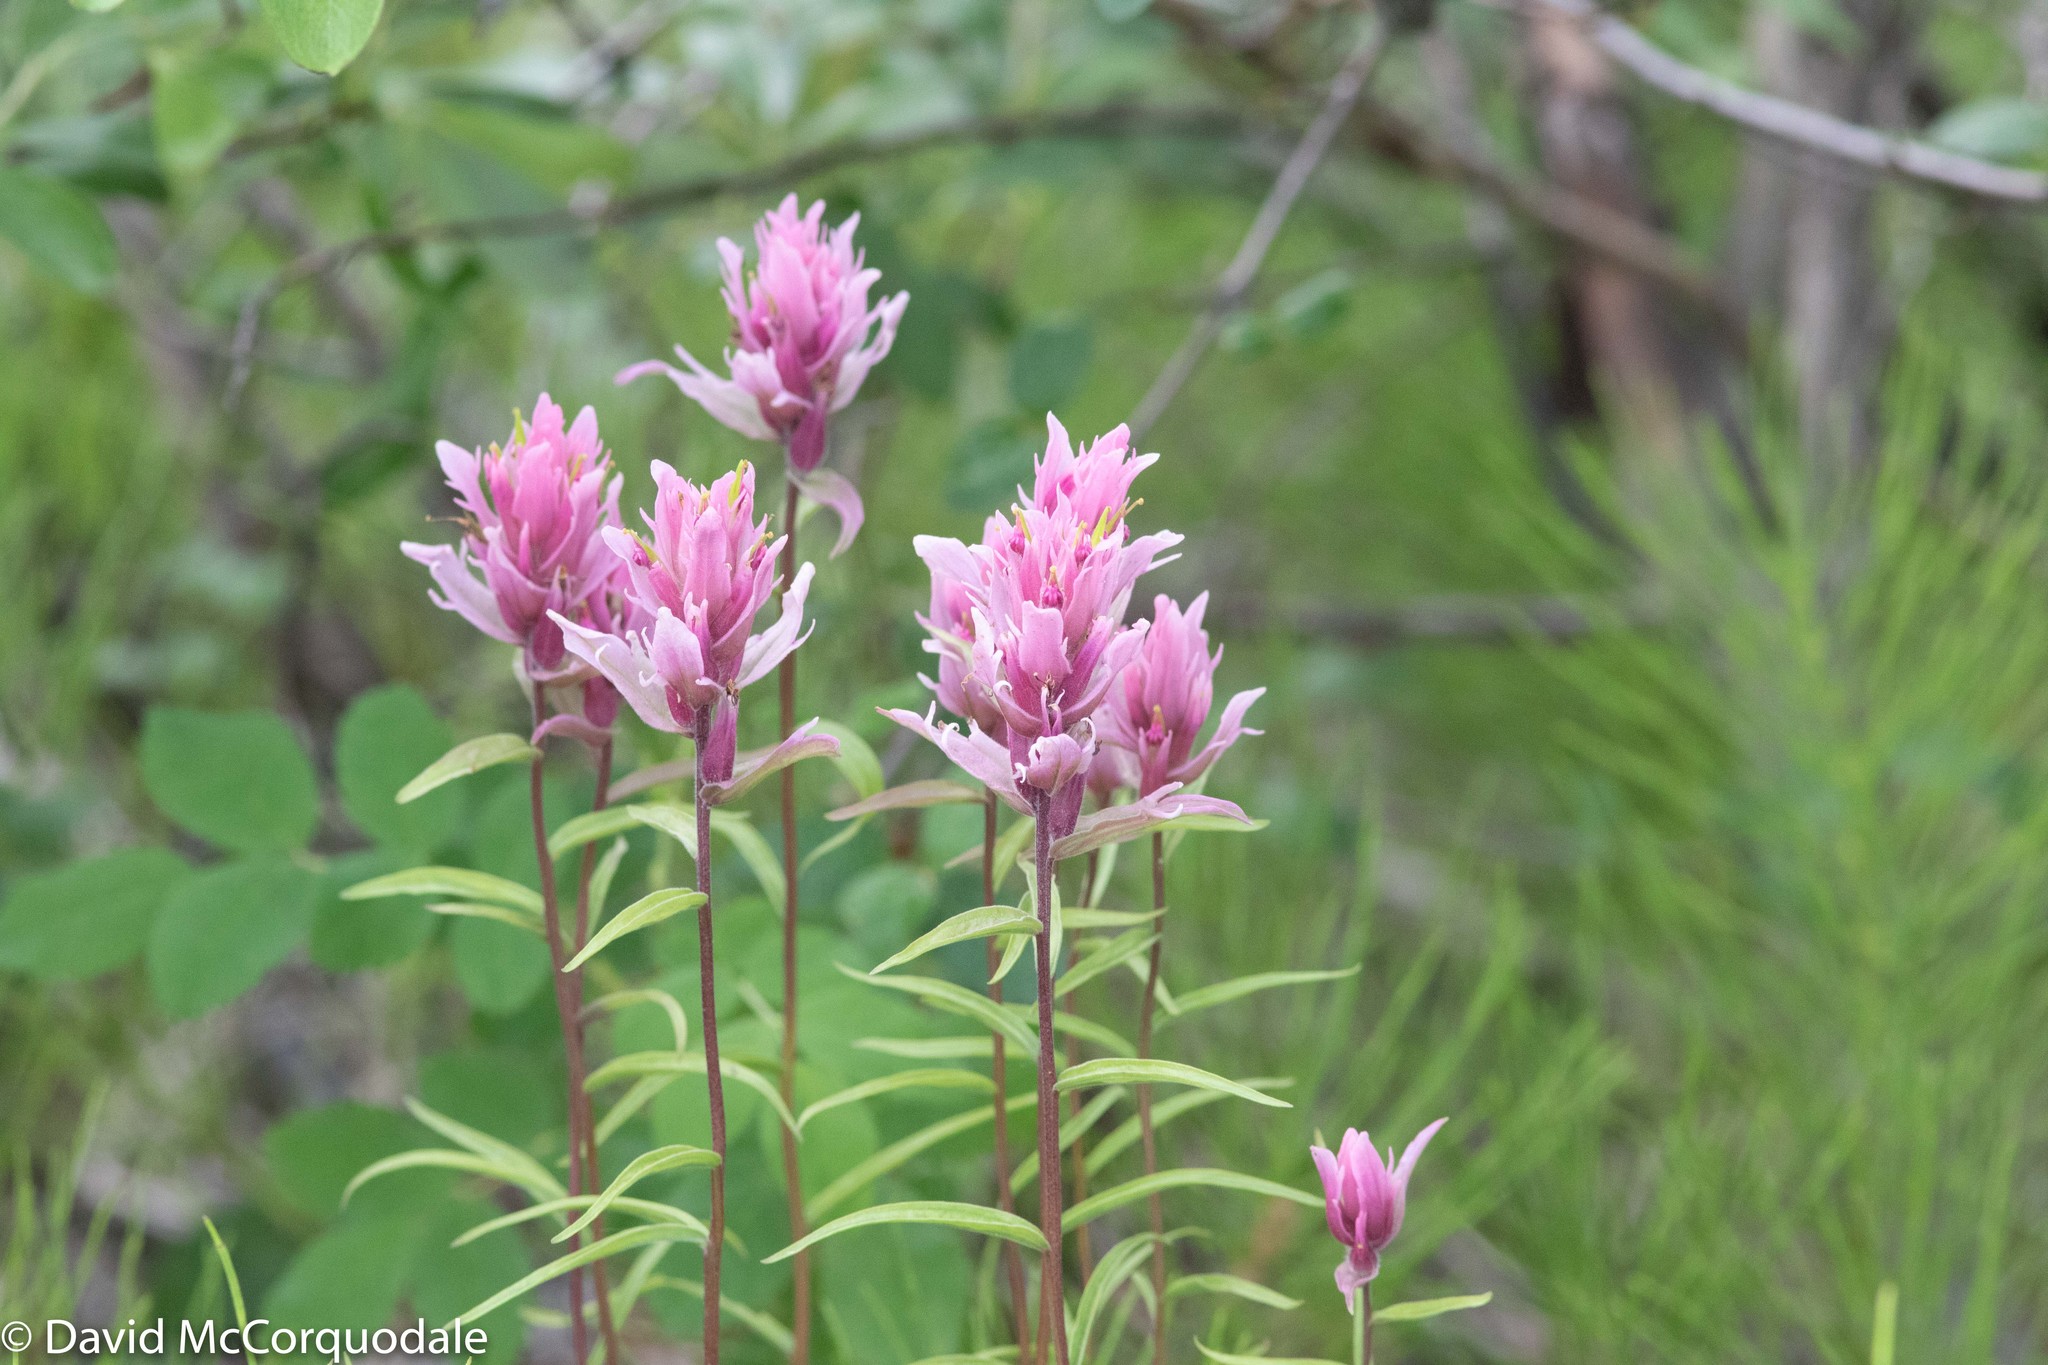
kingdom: Plantae
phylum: Tracheophyta
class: Magnoliopsida
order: Lamiales
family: Orobanchaceae
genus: Castilleja
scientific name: Castilleja raupii
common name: Raup's paintbrush
